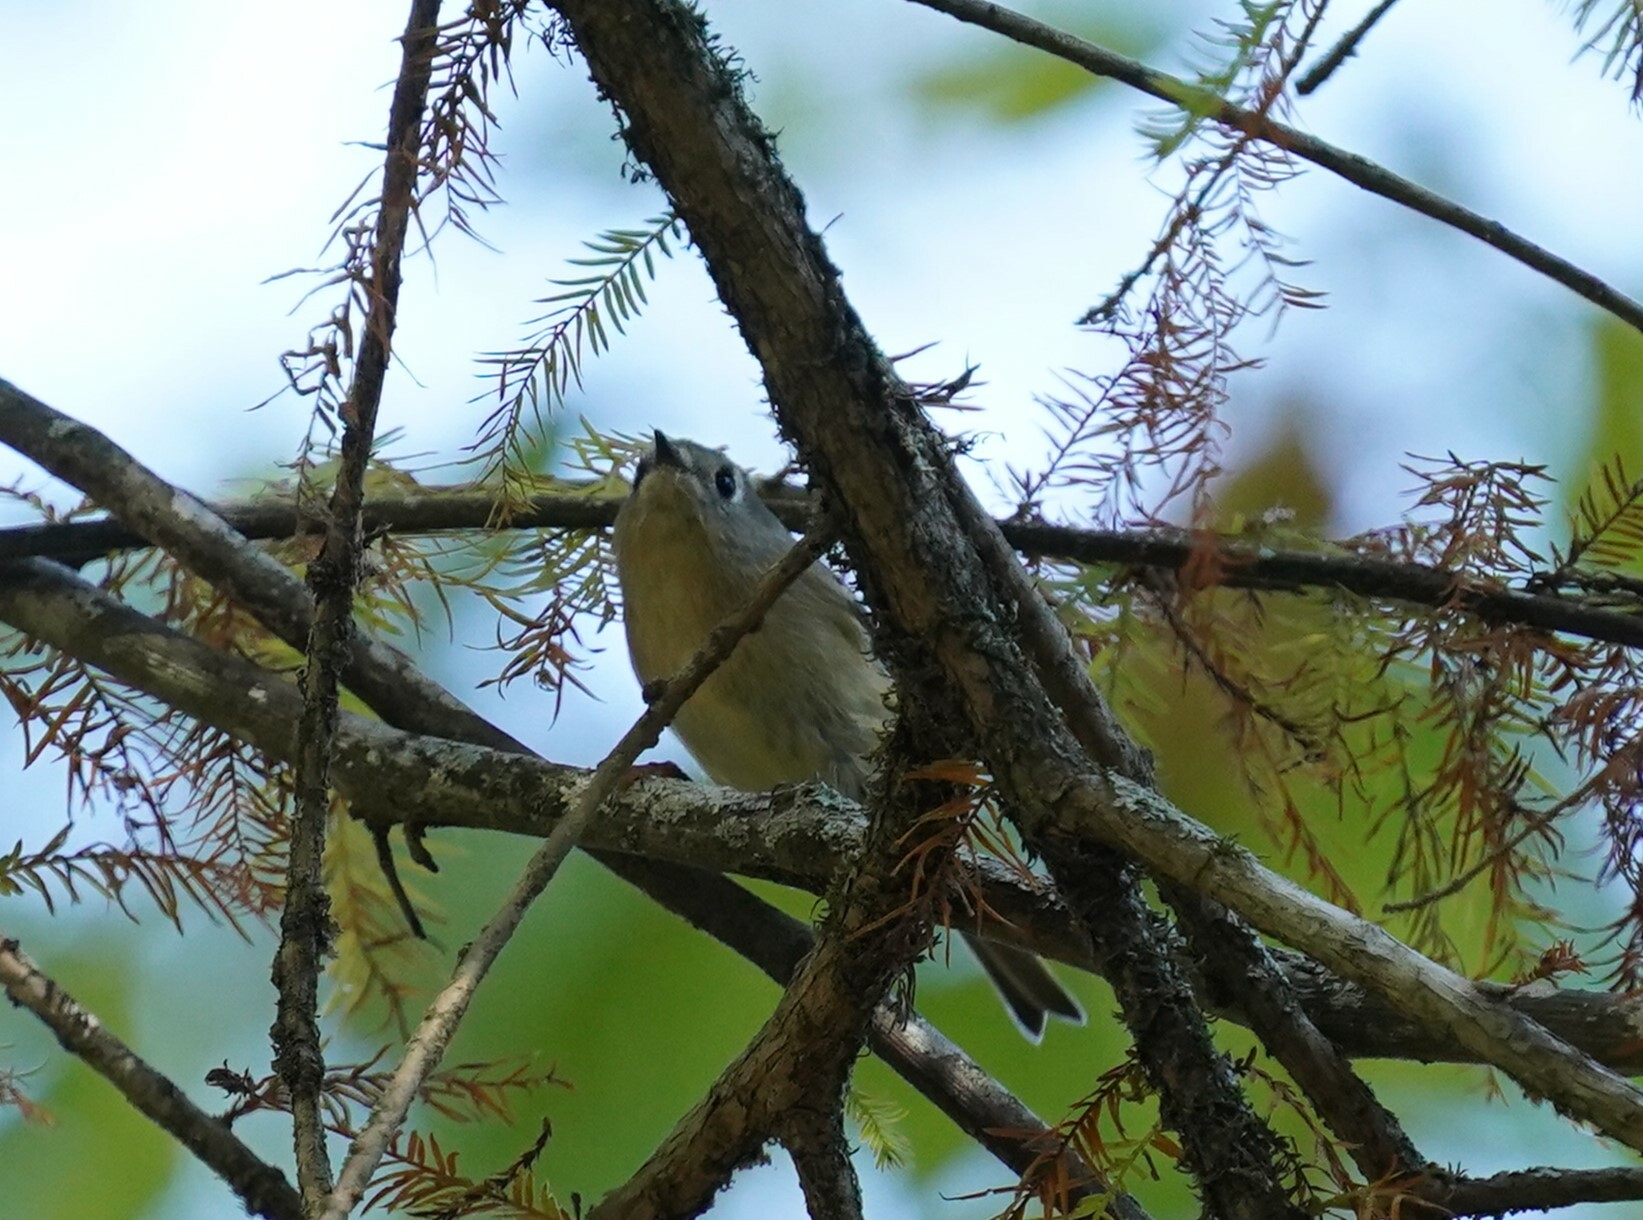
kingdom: Animalia
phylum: Chordata
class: Aves
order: Passeriformes
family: Regulidae
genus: Regulus
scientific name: Regulus calendula
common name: Ruby-crowned kinglet
